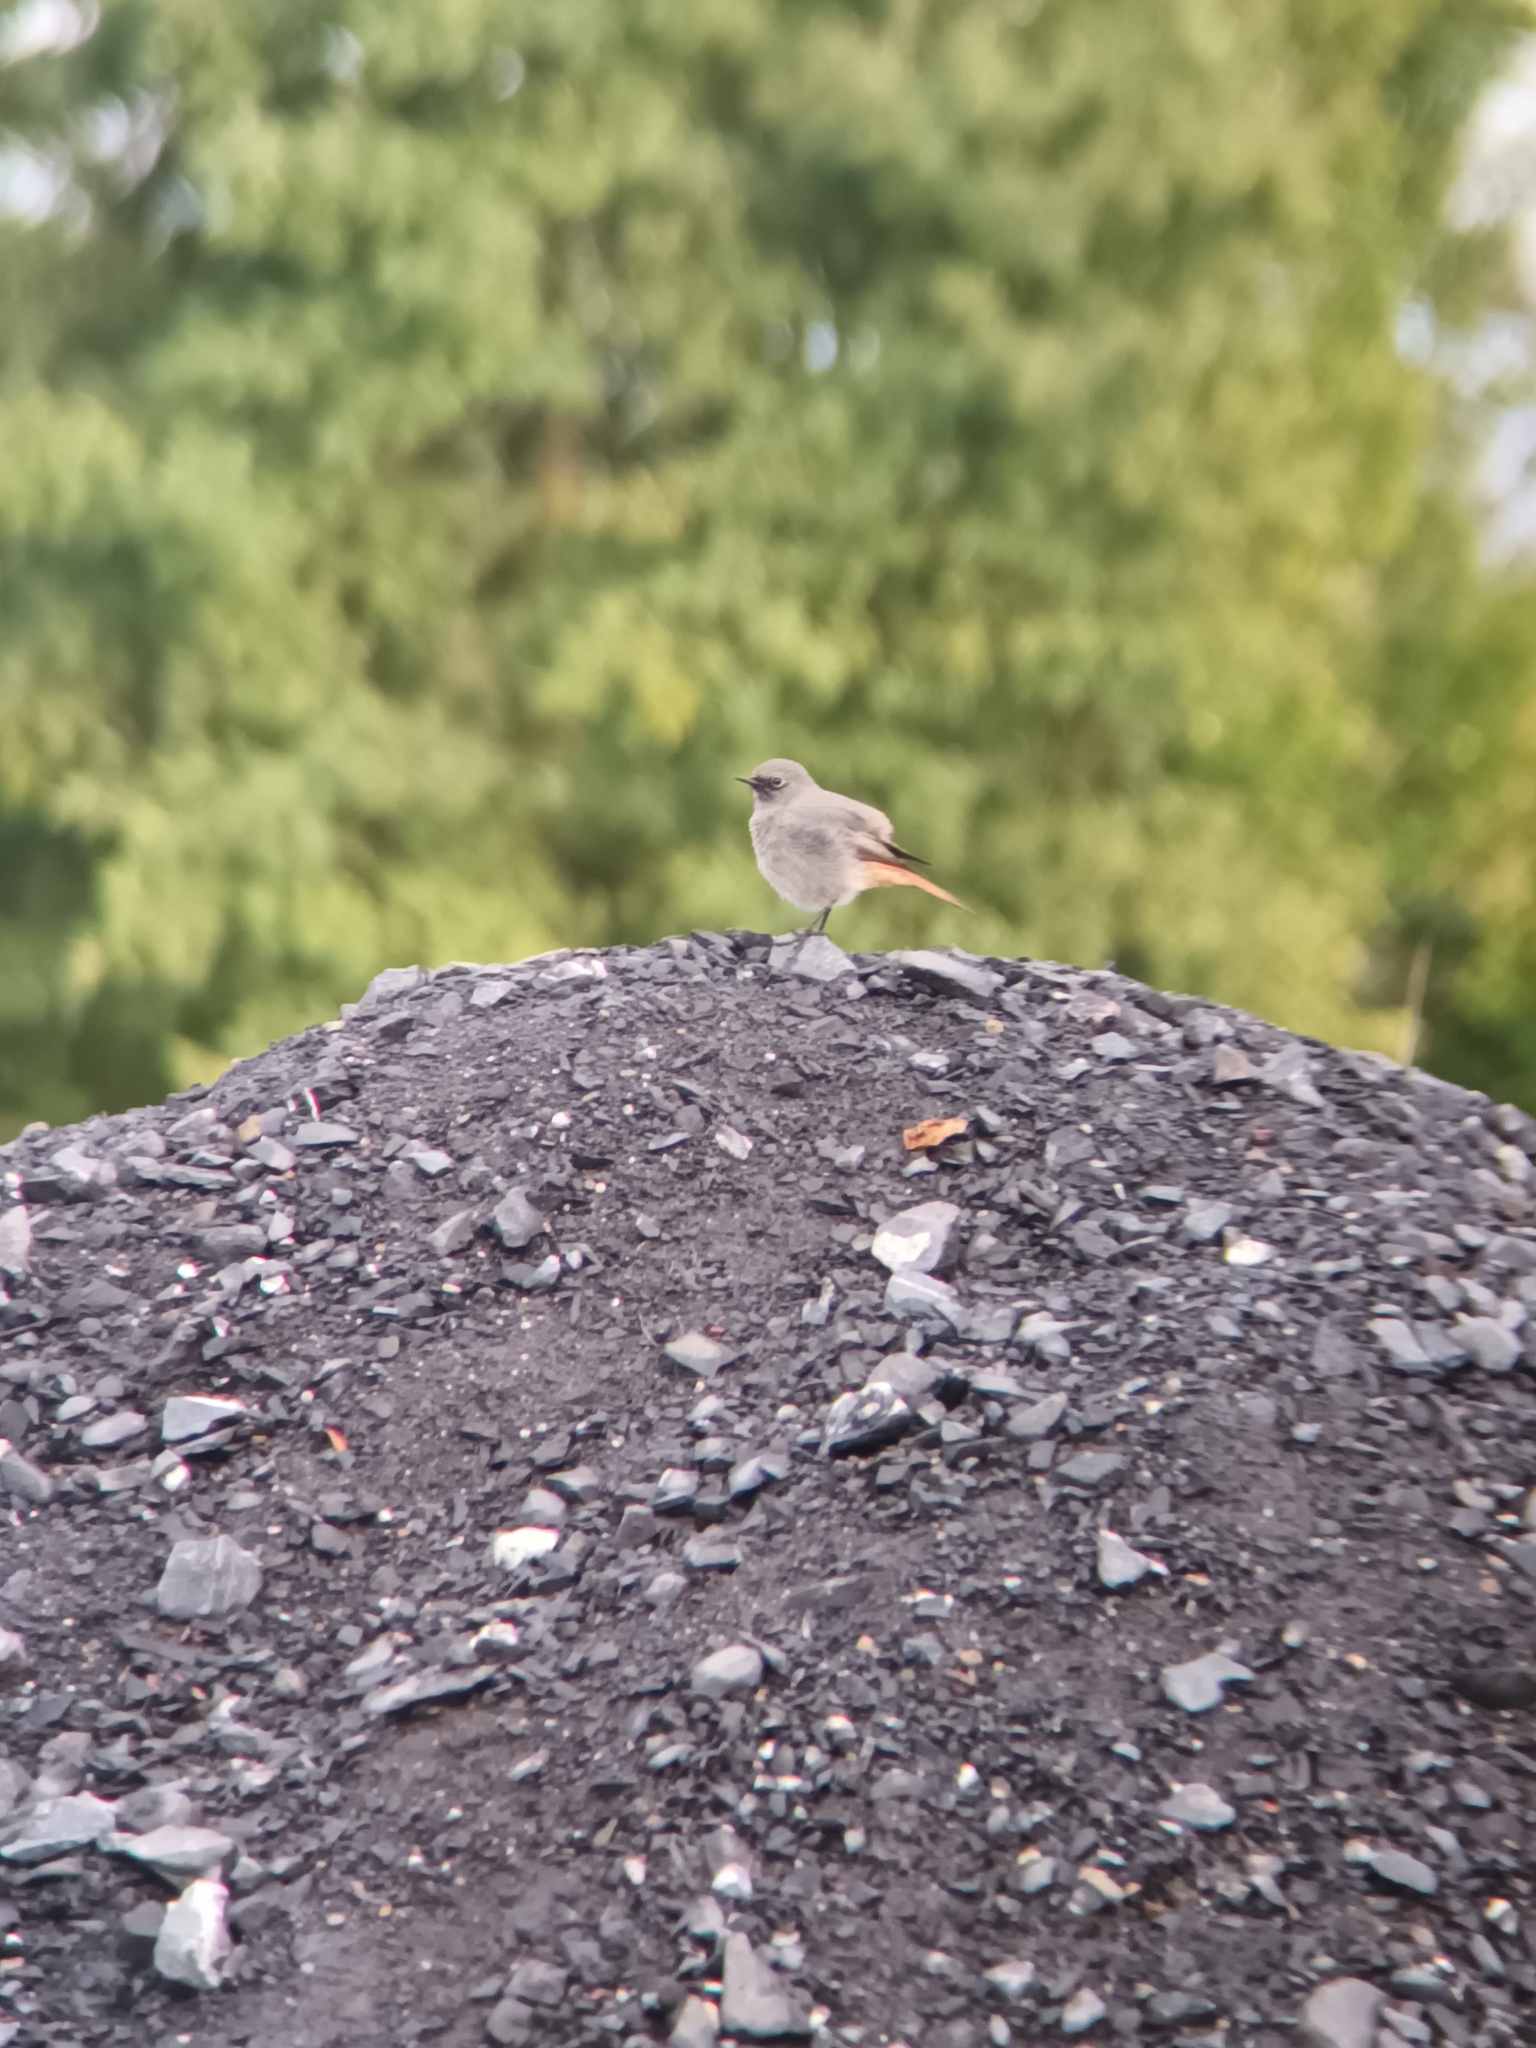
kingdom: Animalia
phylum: Chordata
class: Aves
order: Passeriformes
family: Muscicapidae
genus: Phoenicurus
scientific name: Phoenicurus ochruros
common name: Black redstart
